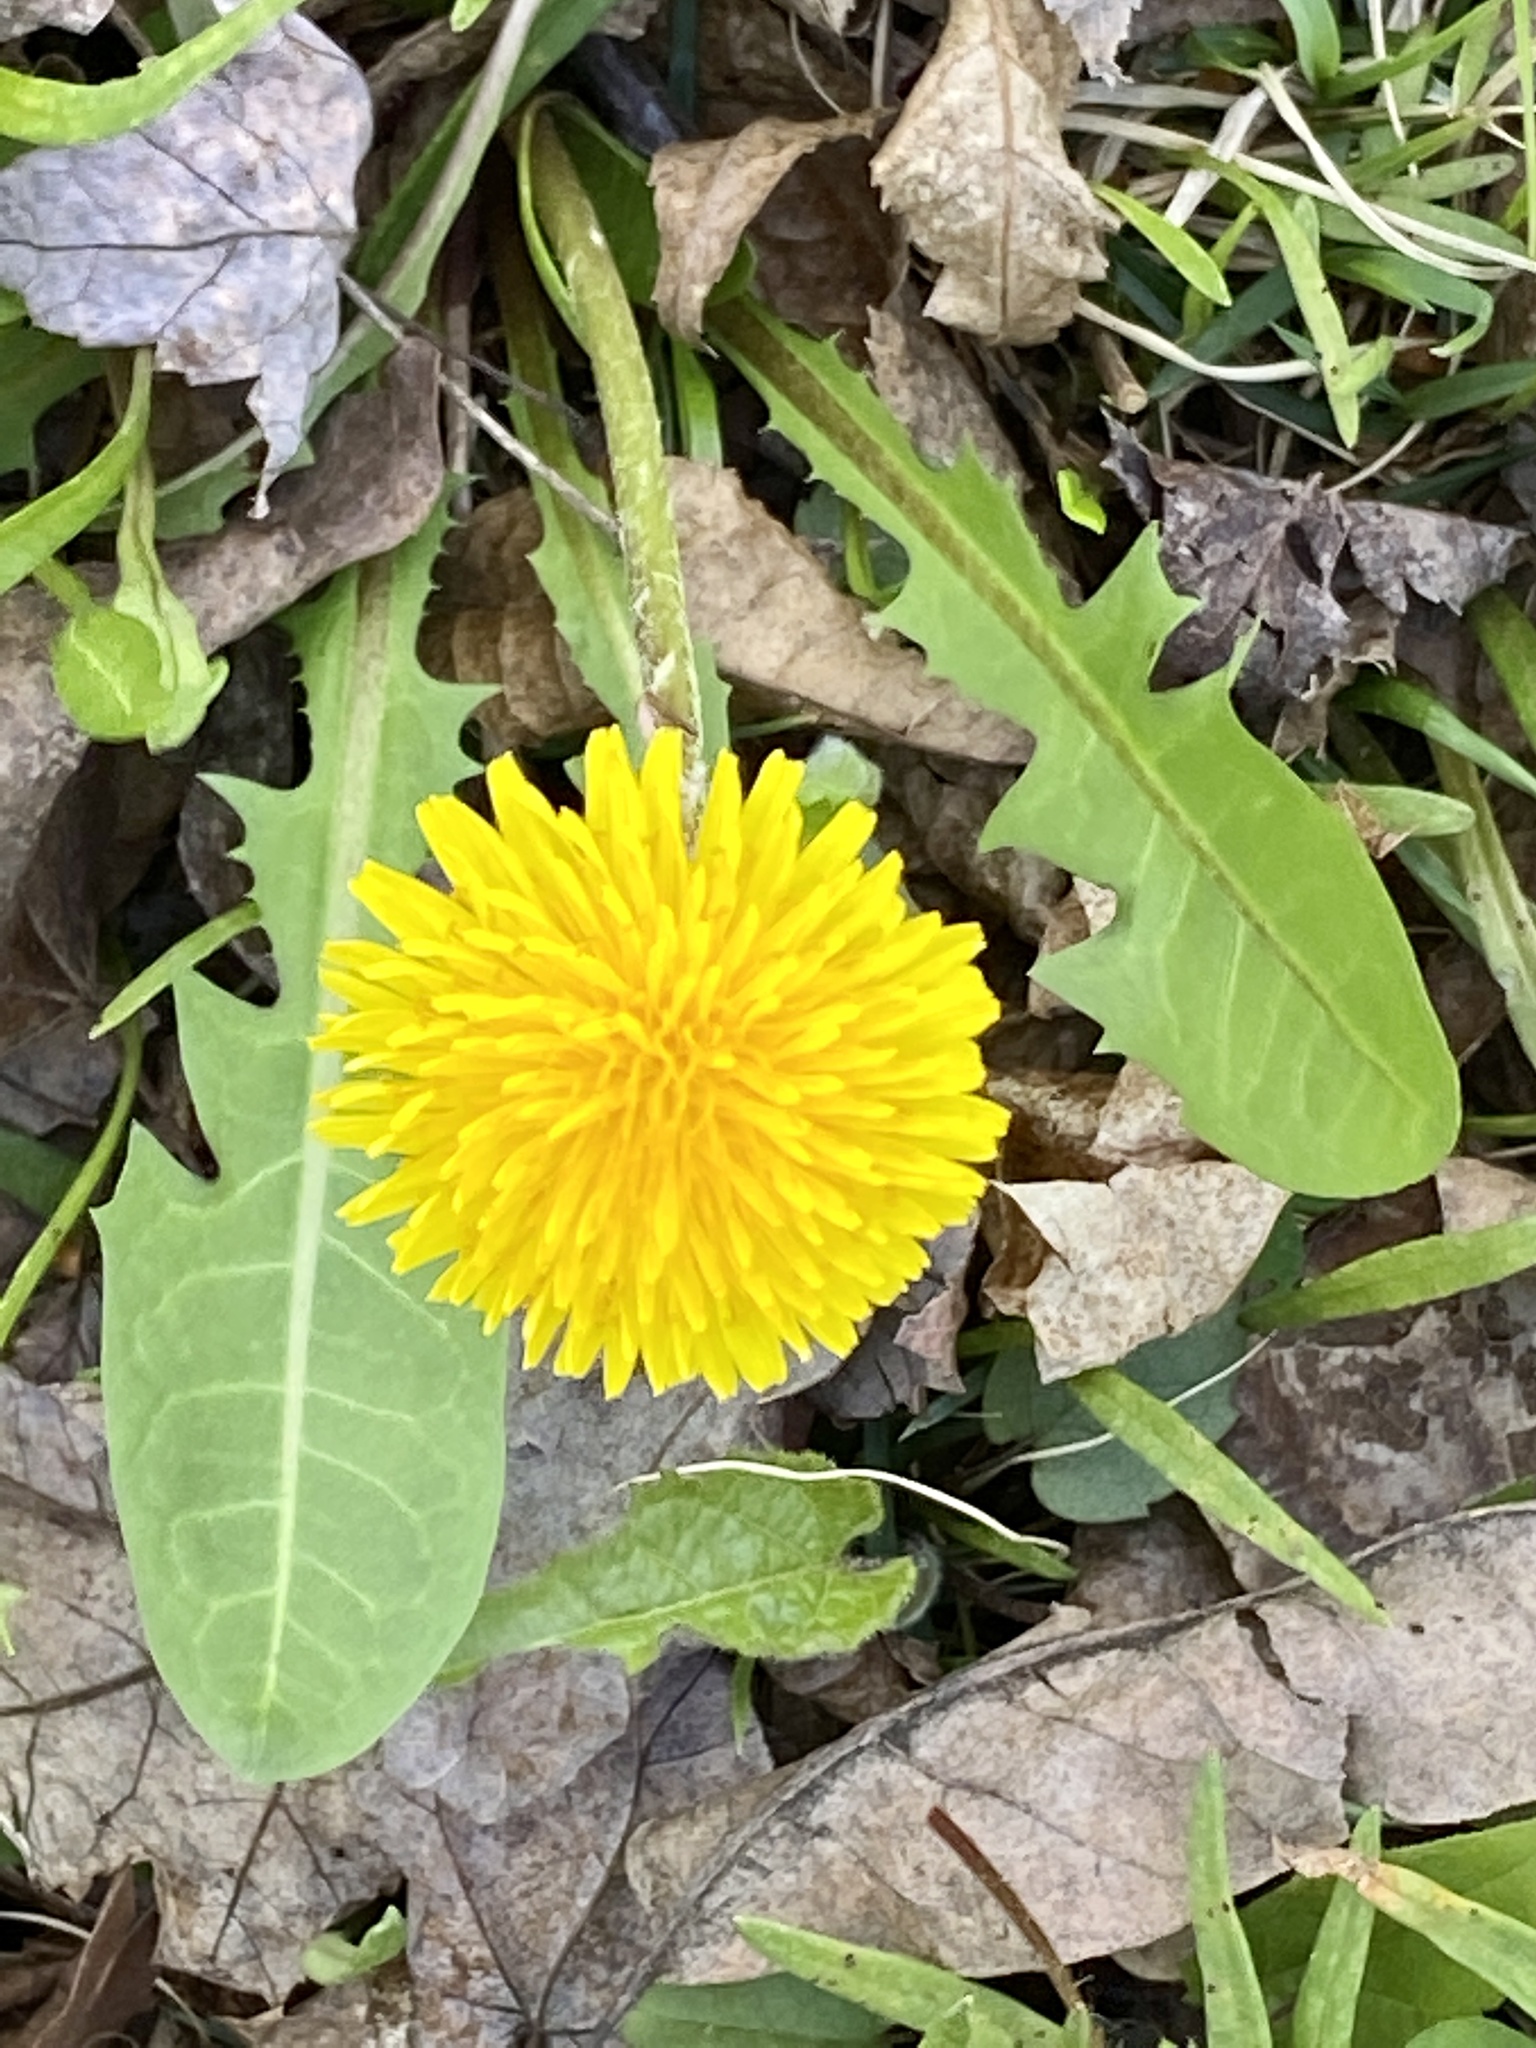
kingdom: Plantae
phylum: Tracheophyta
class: Magnoliopsida
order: Asterales
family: Asteraceae
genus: Taraxacum
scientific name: Taraxacum officinale
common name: Common dandelion
